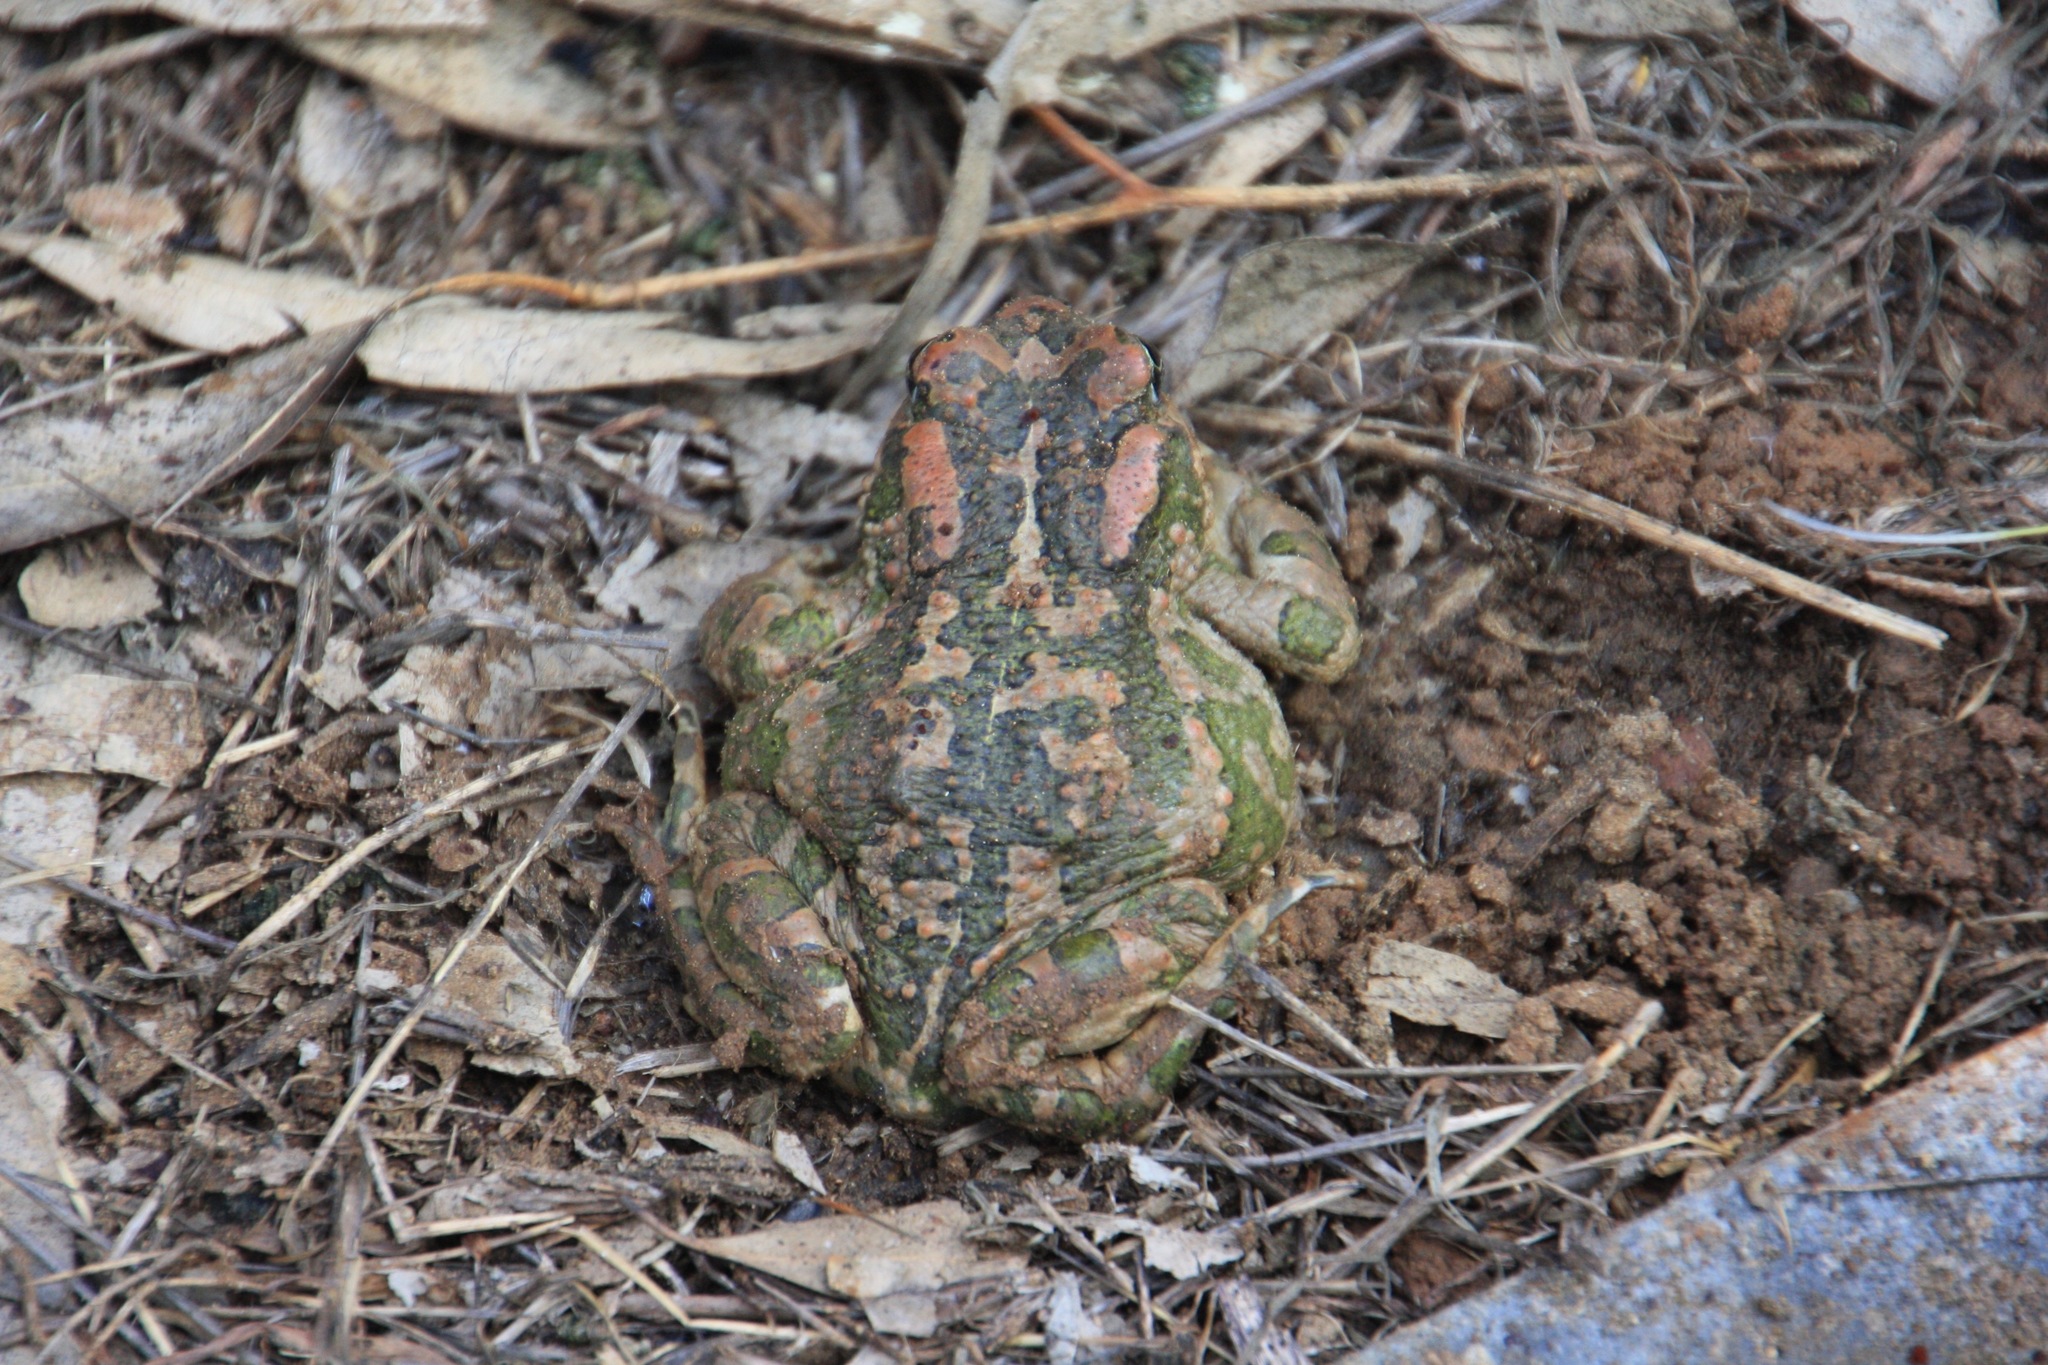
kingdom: Animalia
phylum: Chordata
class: Amphibia
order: Anura
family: Bufonidae
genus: Bufotes
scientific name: Bufotes cypriensis
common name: Cyprus green toad
